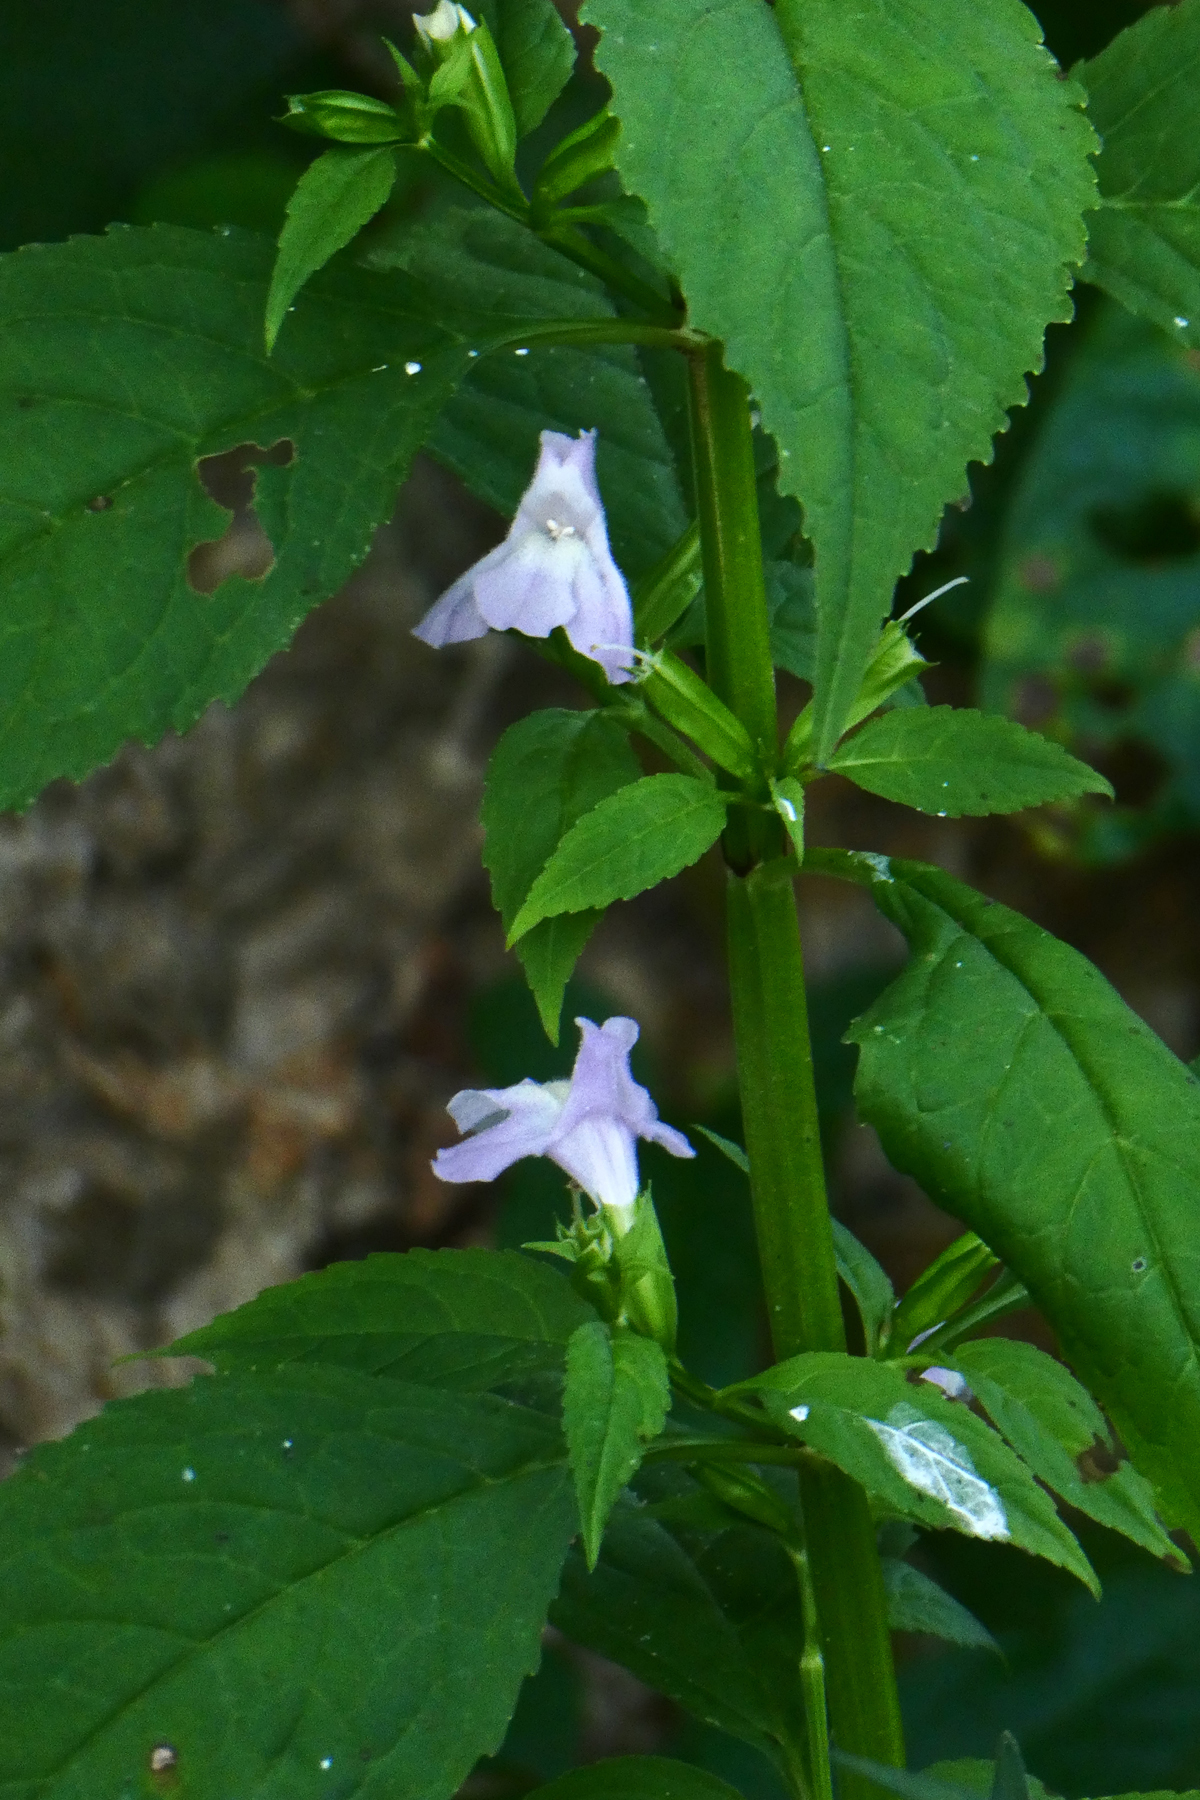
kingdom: Plantae
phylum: Tracheophyta
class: Magnoliopsida
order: Lamiales
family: Phrymaceae
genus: Mimulus
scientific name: Mimulus alatus
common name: Sharp-wing monkey-flower
